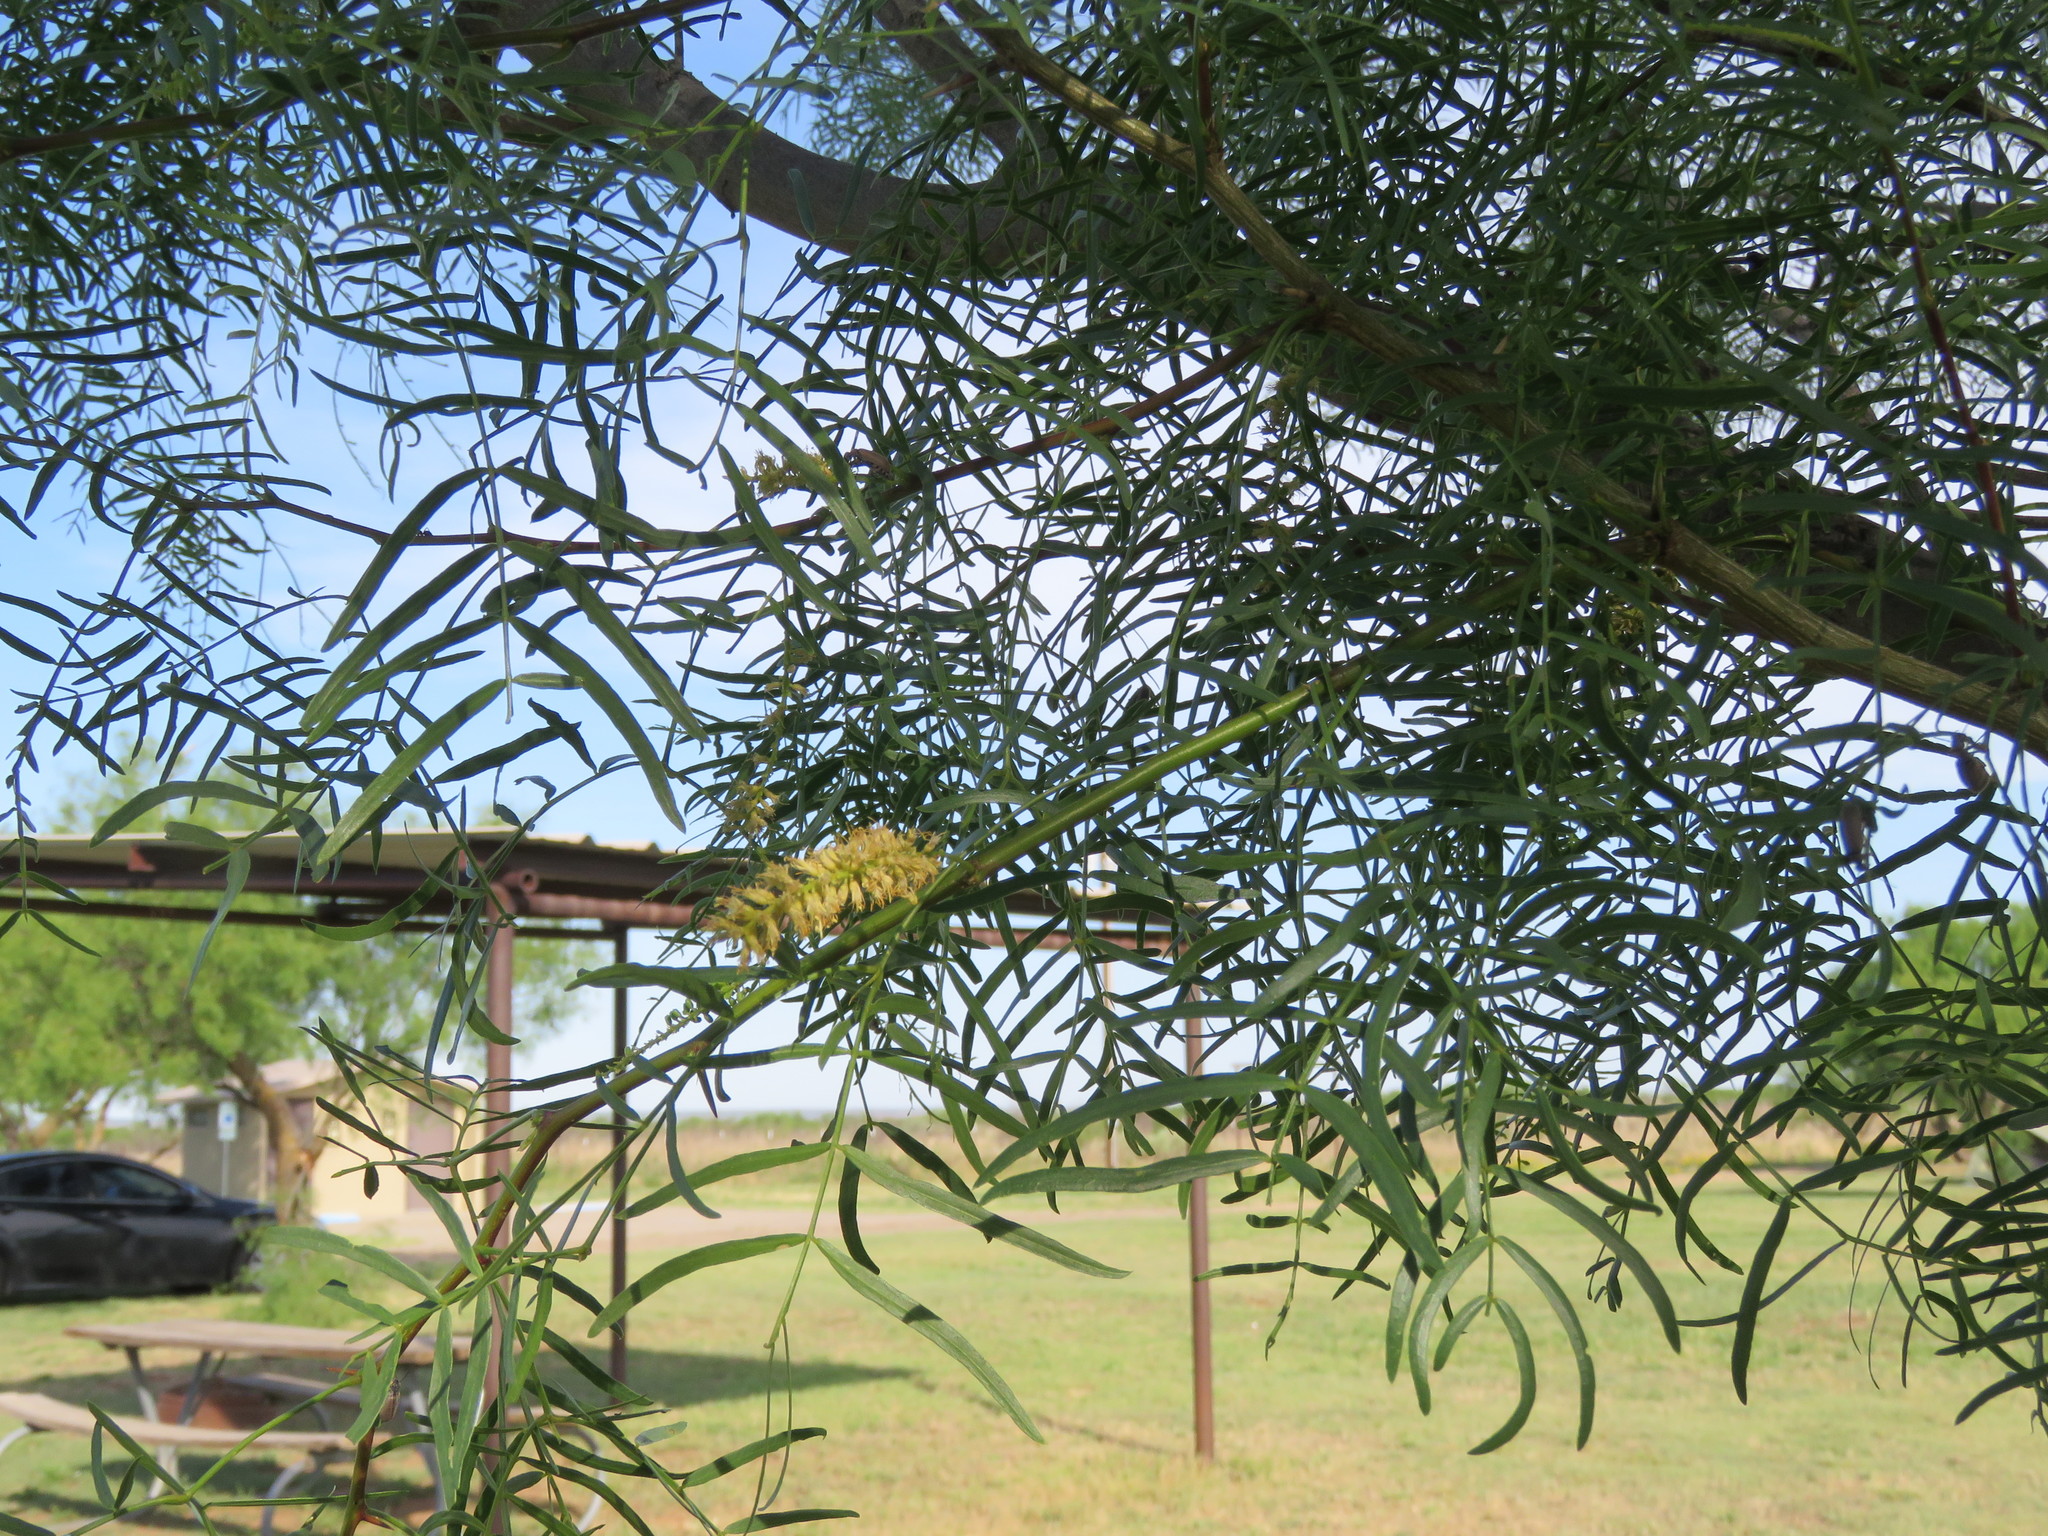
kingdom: Plantae
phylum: Tracheophyta
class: Magnoliopsida
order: Fabales
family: Fabaceae
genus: Prosopis
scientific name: Prosopis glandulosa
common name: Honey mesquite
